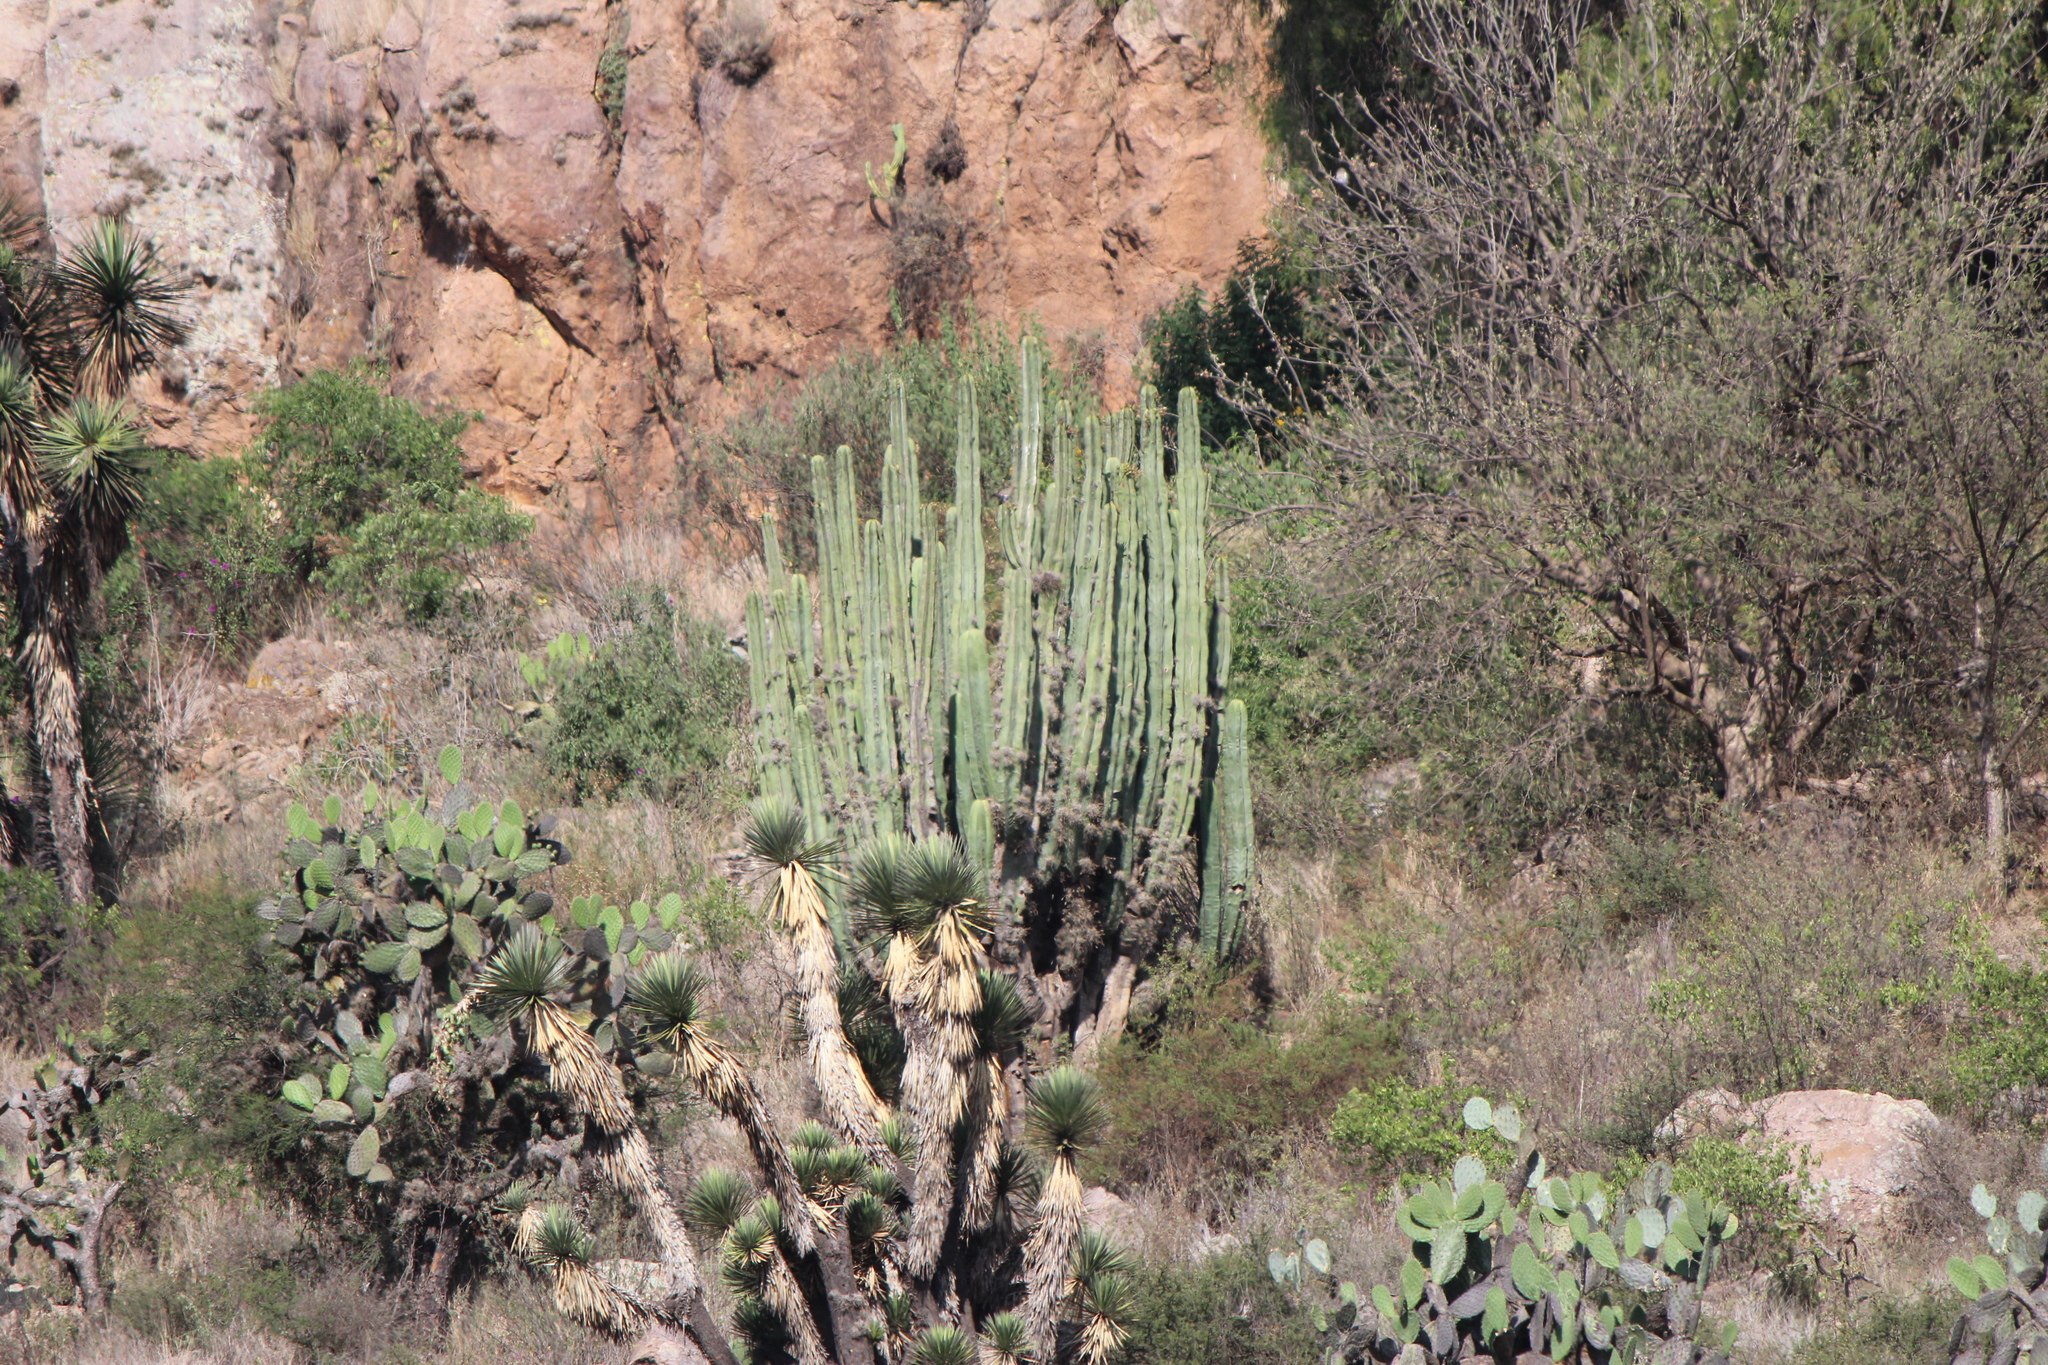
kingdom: Plantae
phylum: Tracheophyta
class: Magnoliopsida
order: Caryophyllales
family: Cactaceae
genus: Stenocereus
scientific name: Stenocereus dumortieri
